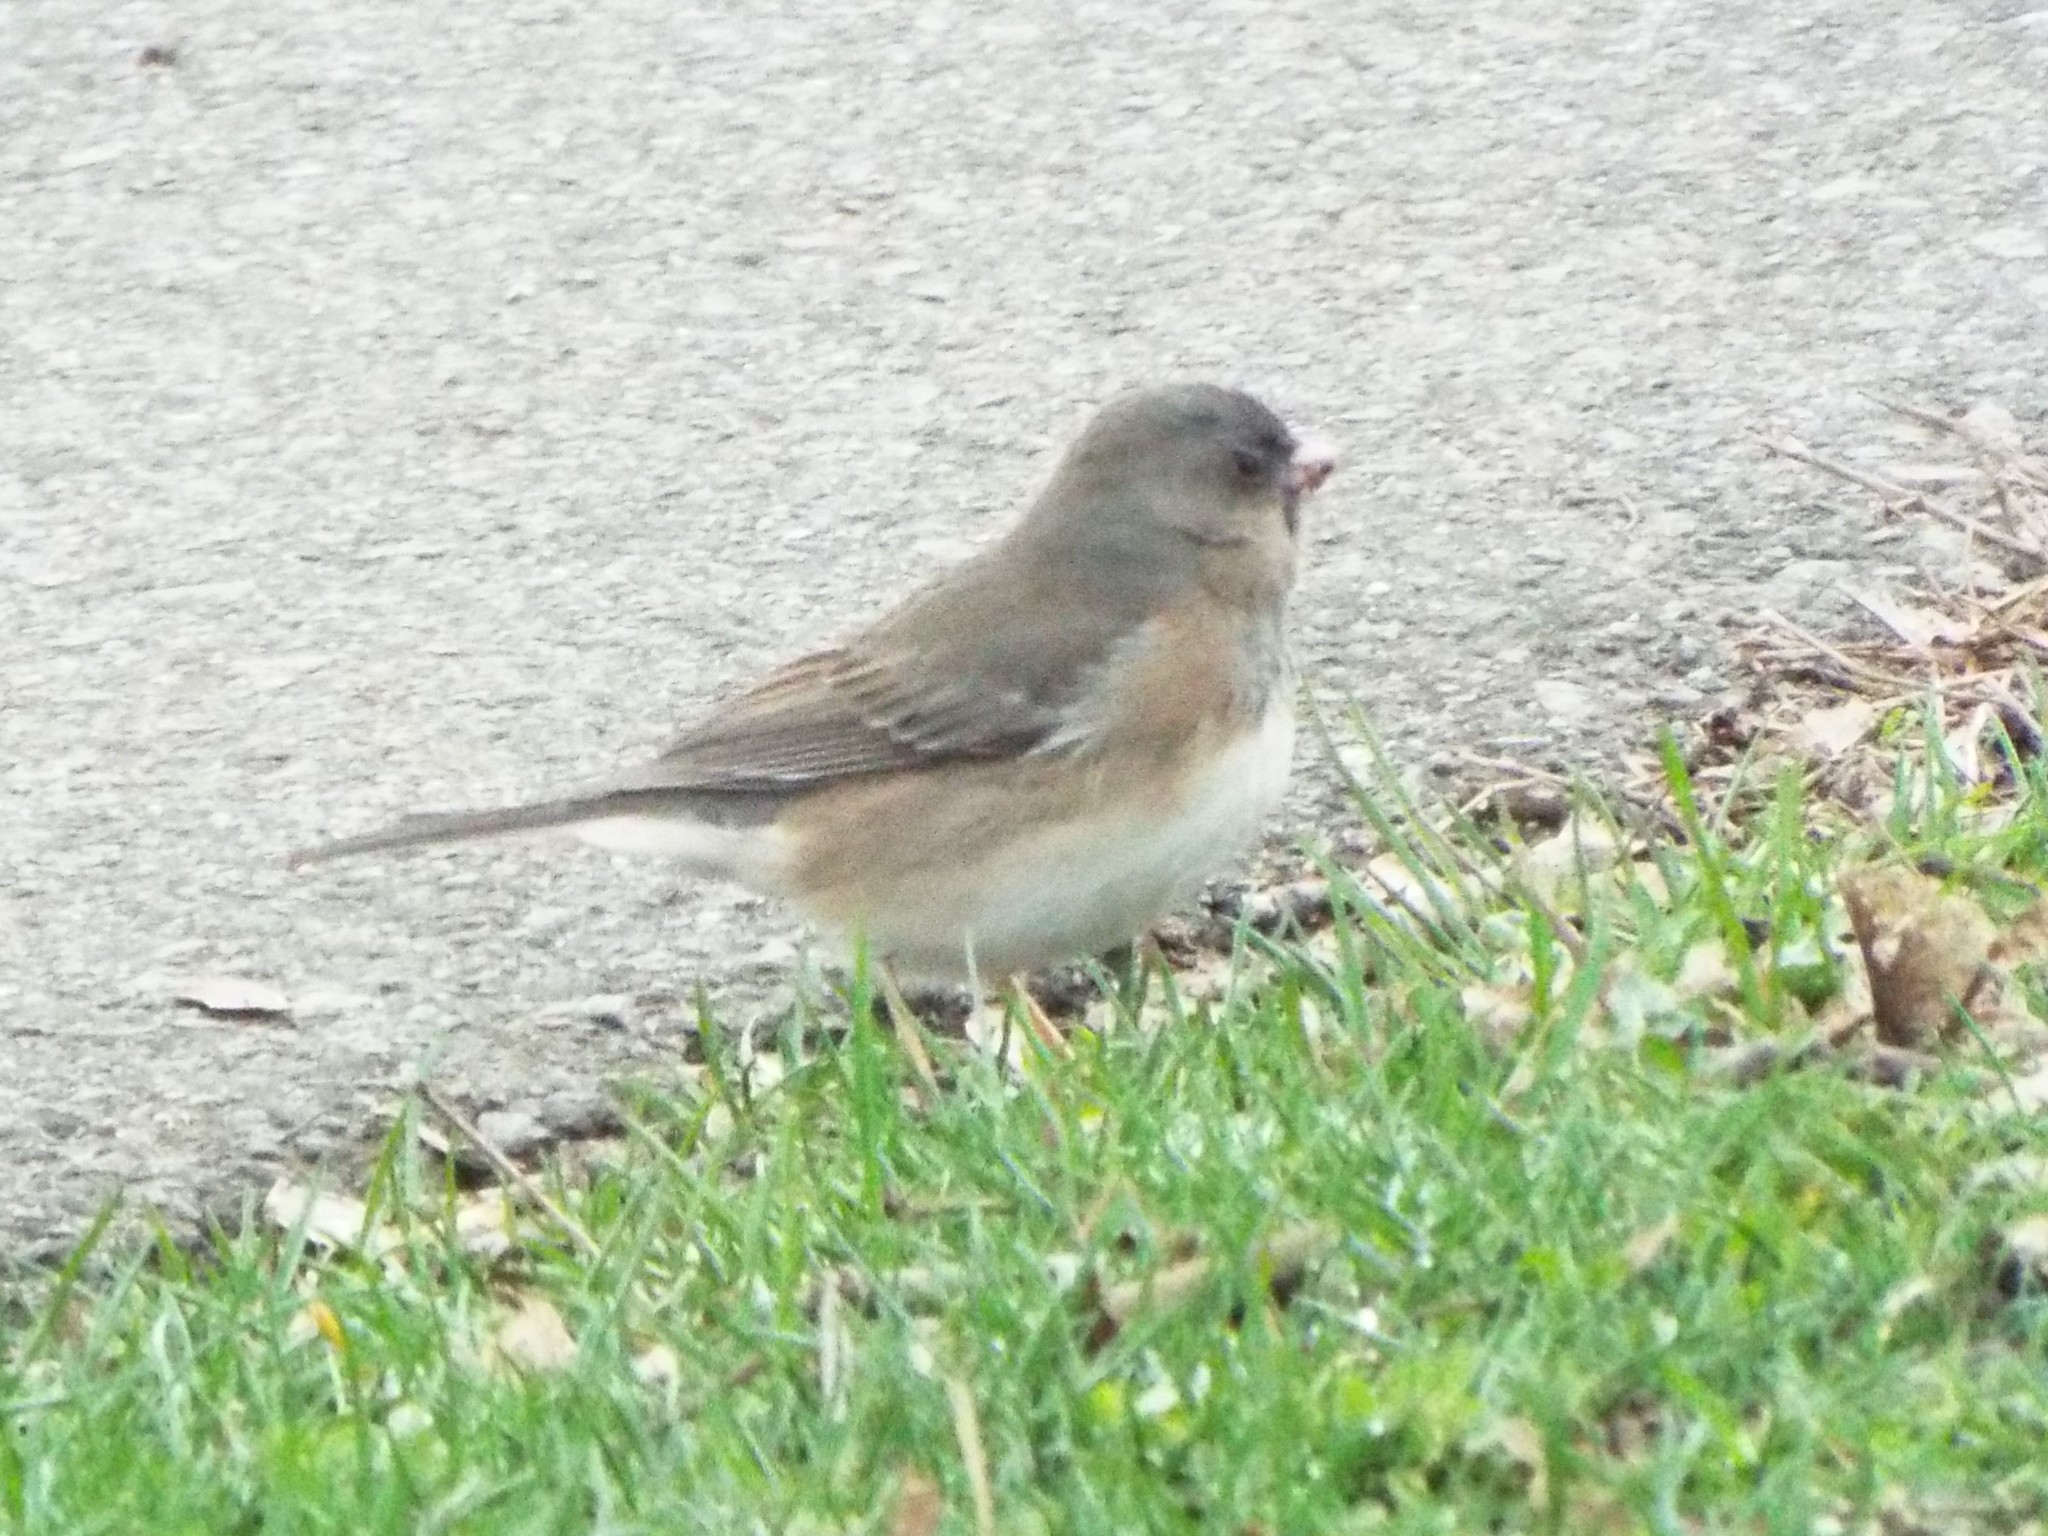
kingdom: Animalia
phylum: Chordata
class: Aves
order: Passeriformes
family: Passerellidae
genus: Junco
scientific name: Junco hyemalis
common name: Dark-eyed junco
